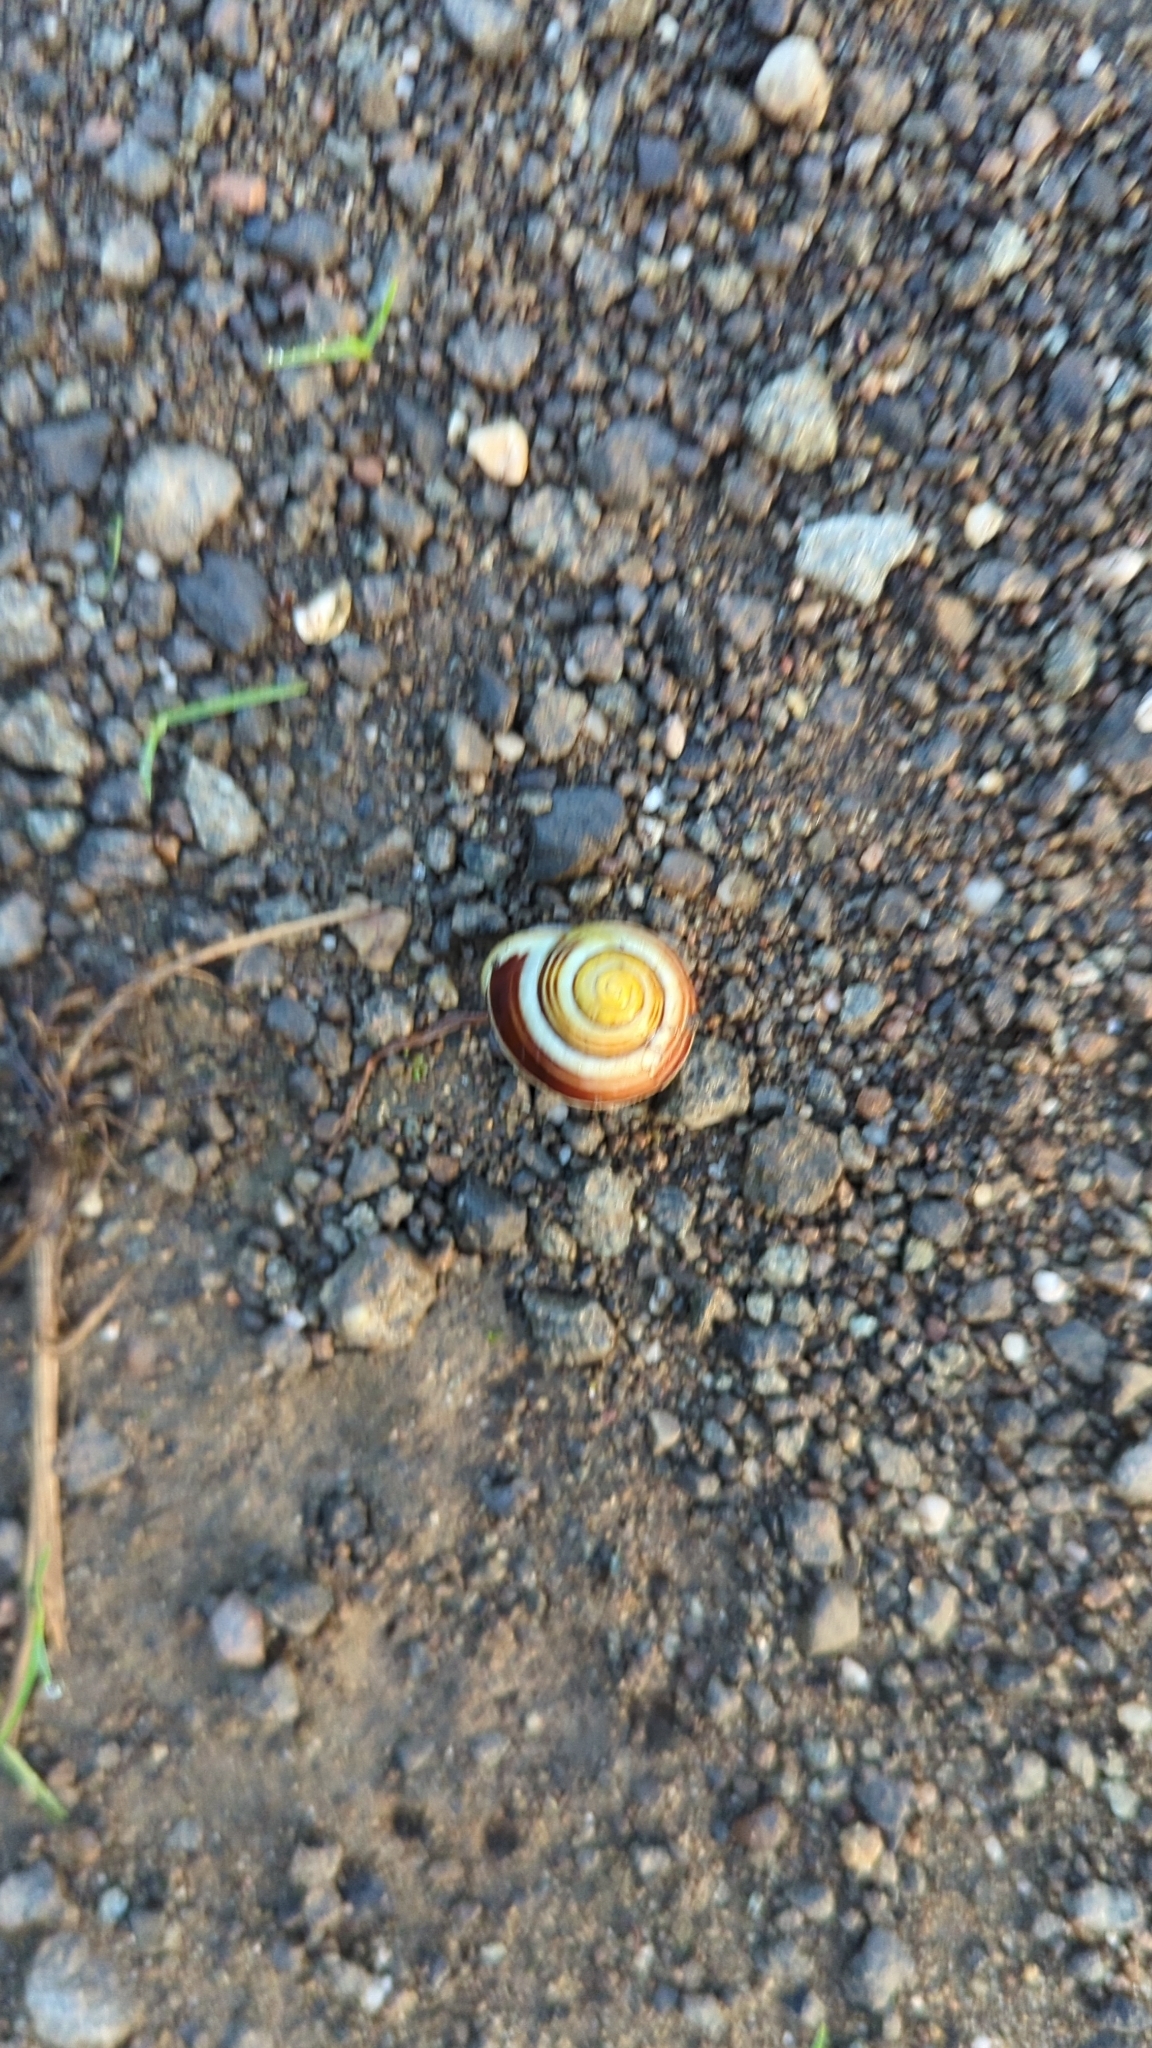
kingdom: Animalia
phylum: Mollusca
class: Gastropoda
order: Stylommatophora
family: Helicidae
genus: Cepaea
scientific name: Cepaea hortensis
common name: White-lip gardensnail
